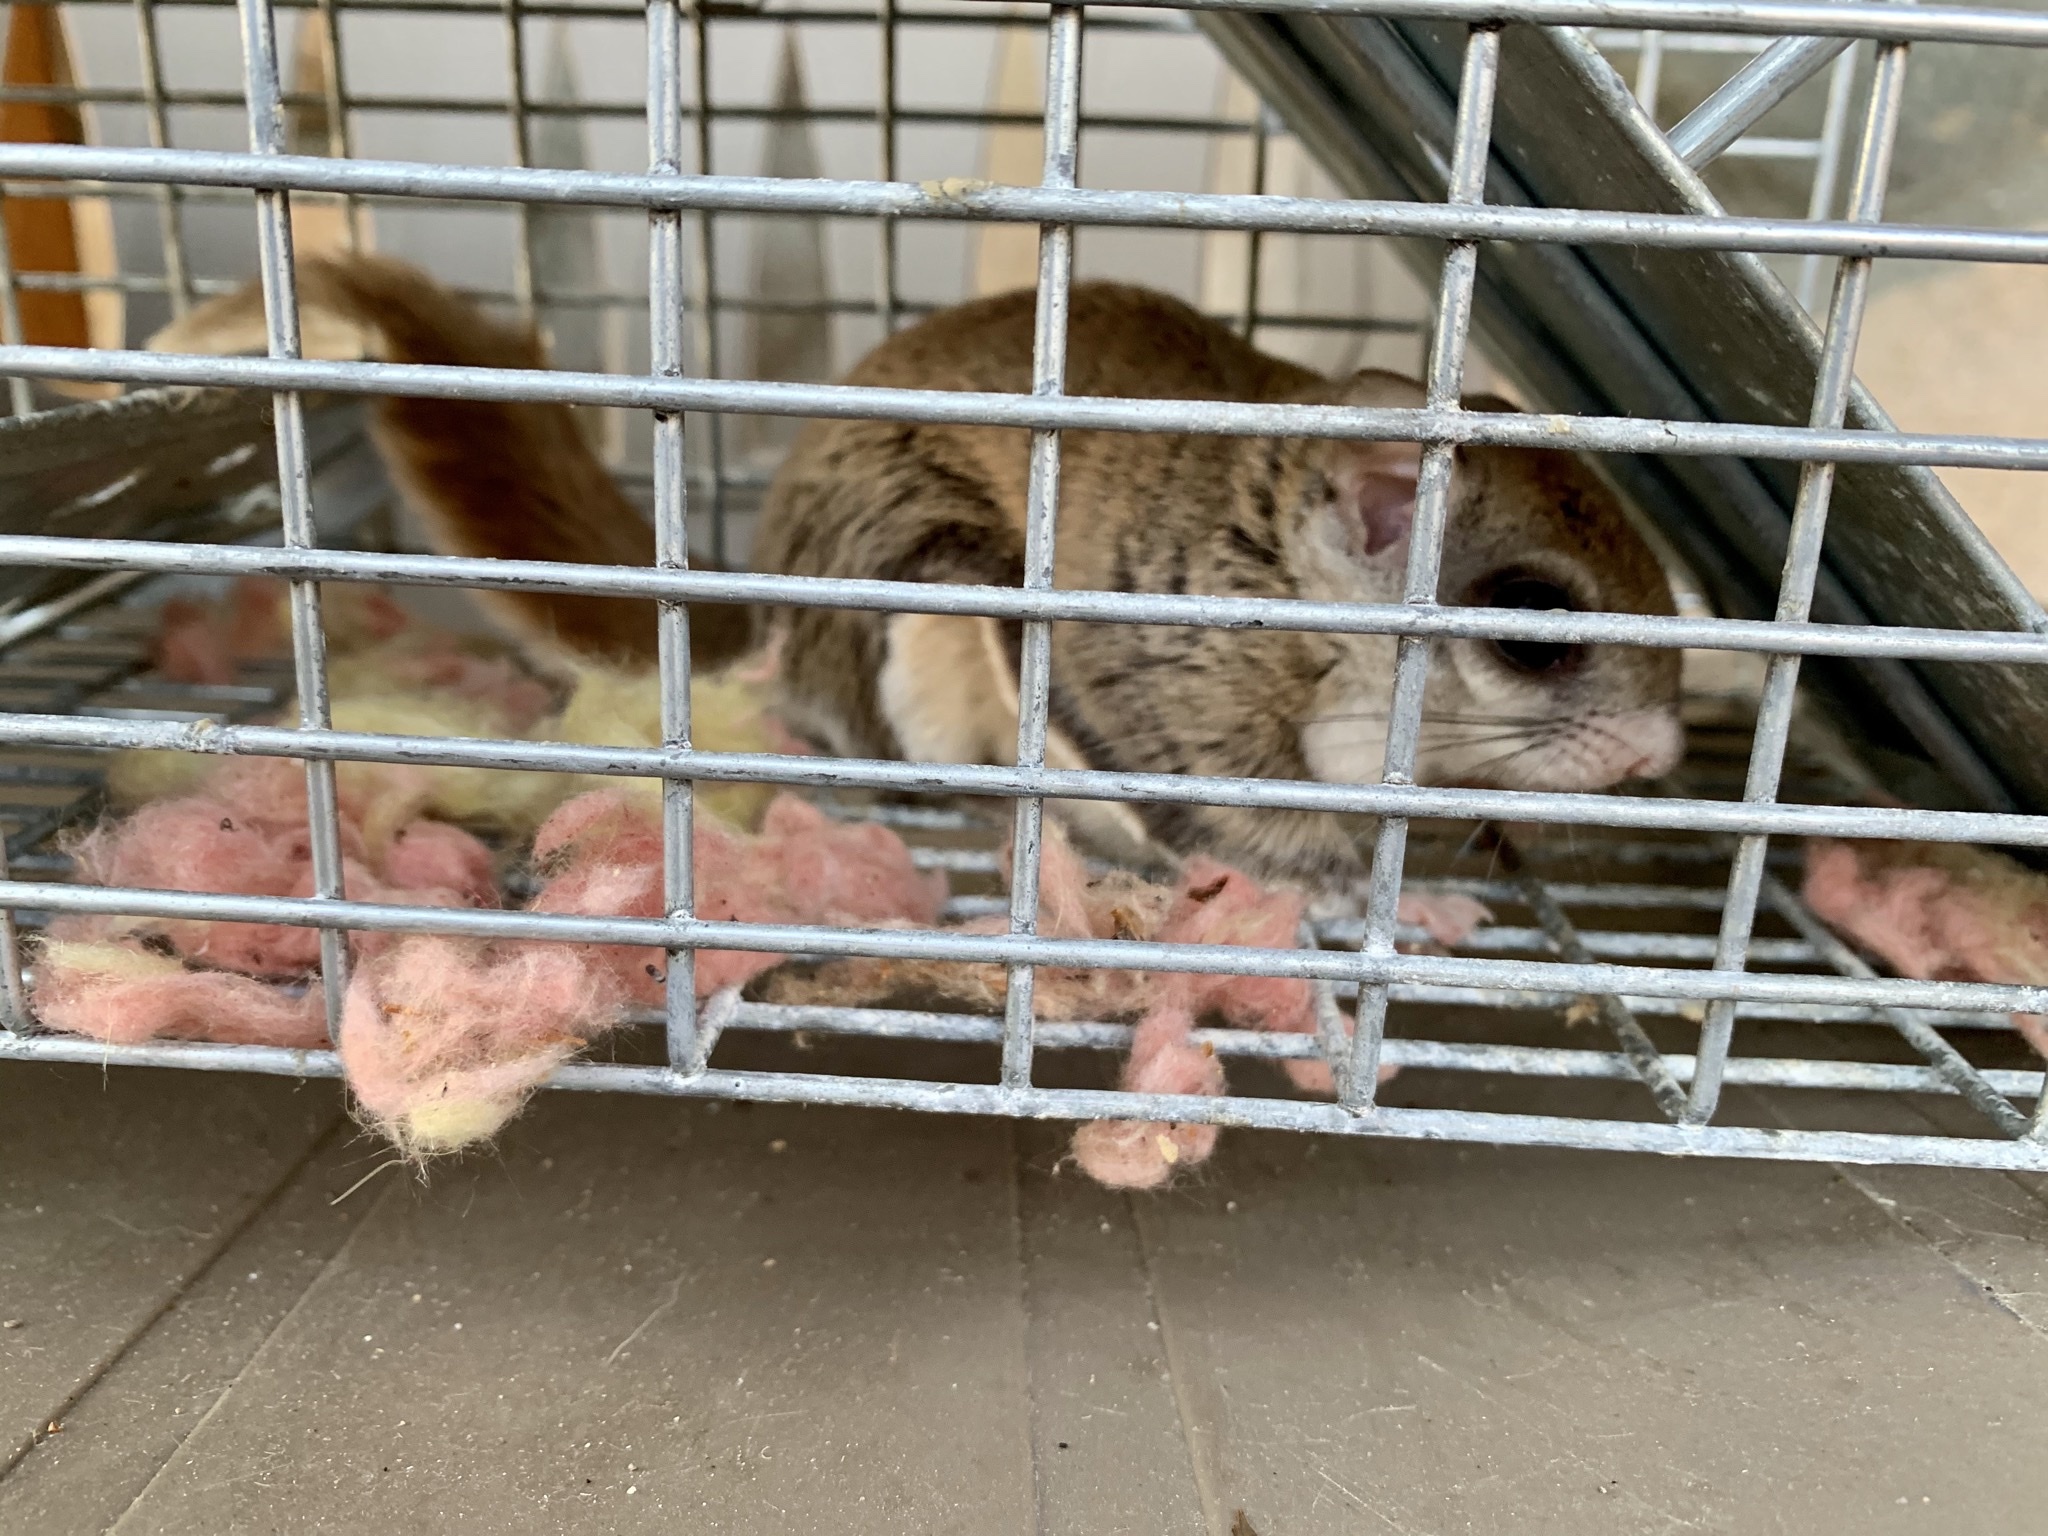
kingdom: Animalia
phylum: Chordata
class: Mammalia
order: Rodentia
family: Sciuridae
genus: Glaucomys
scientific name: Glaucomys volans
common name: Southern flying squirrel
